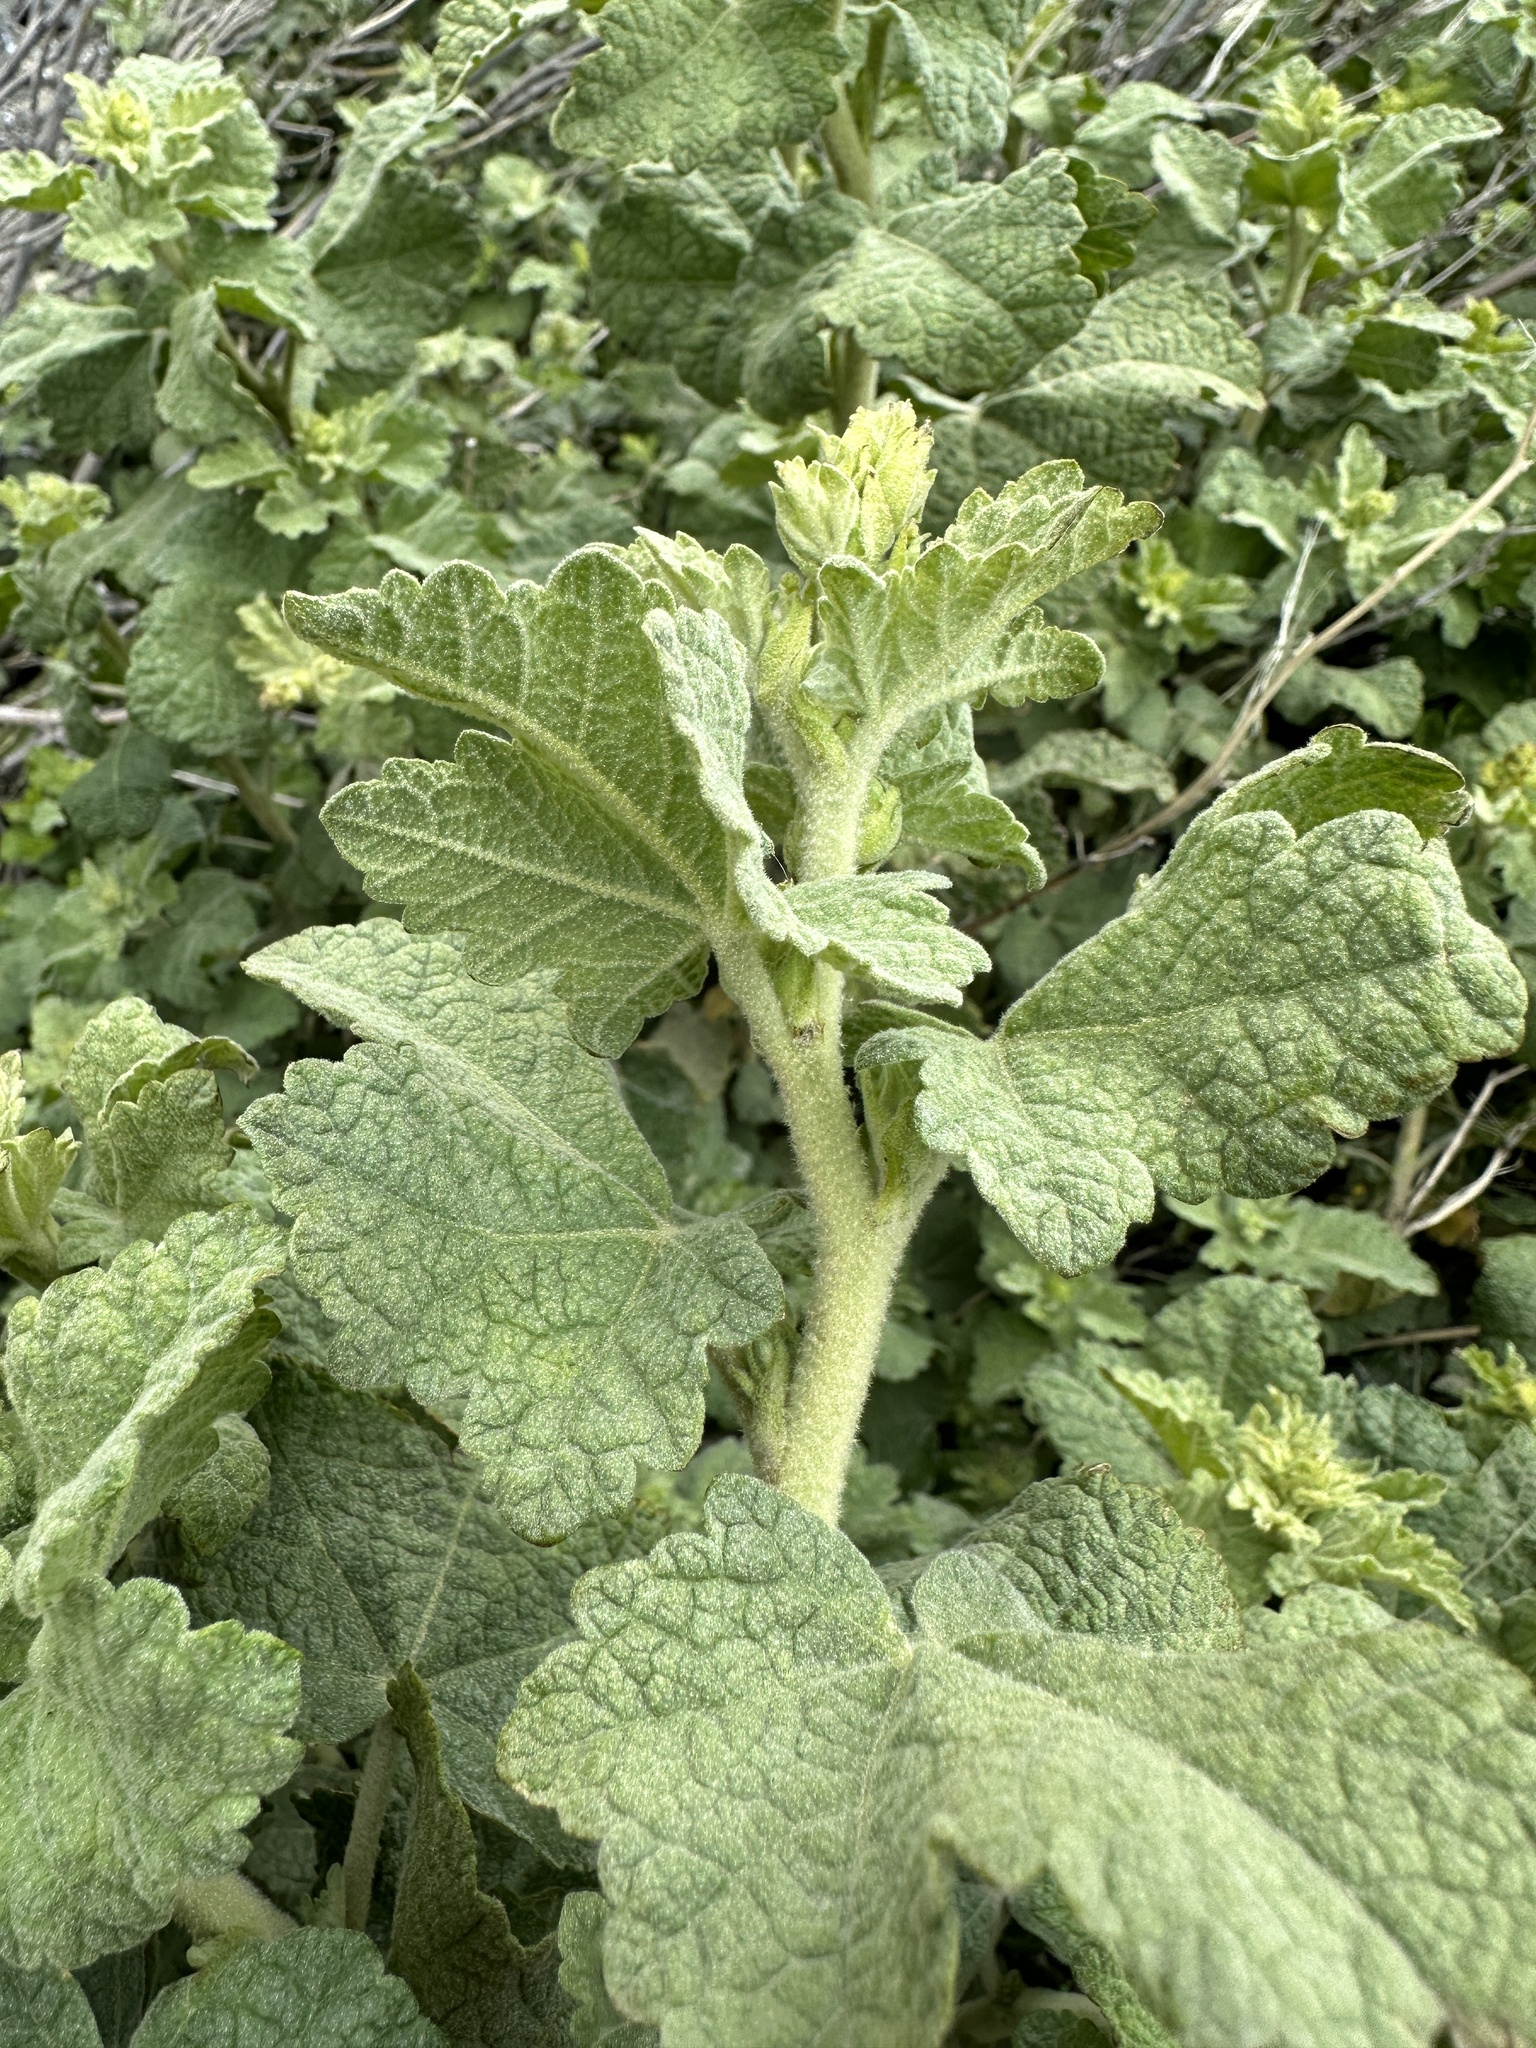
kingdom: Plantae
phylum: Tracheophyta
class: Magnoliopsida
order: Malvales
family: Malvaceae
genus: Malacothamnus
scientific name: Malacothamnus aboriginum
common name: Indian valley bush-mallow
